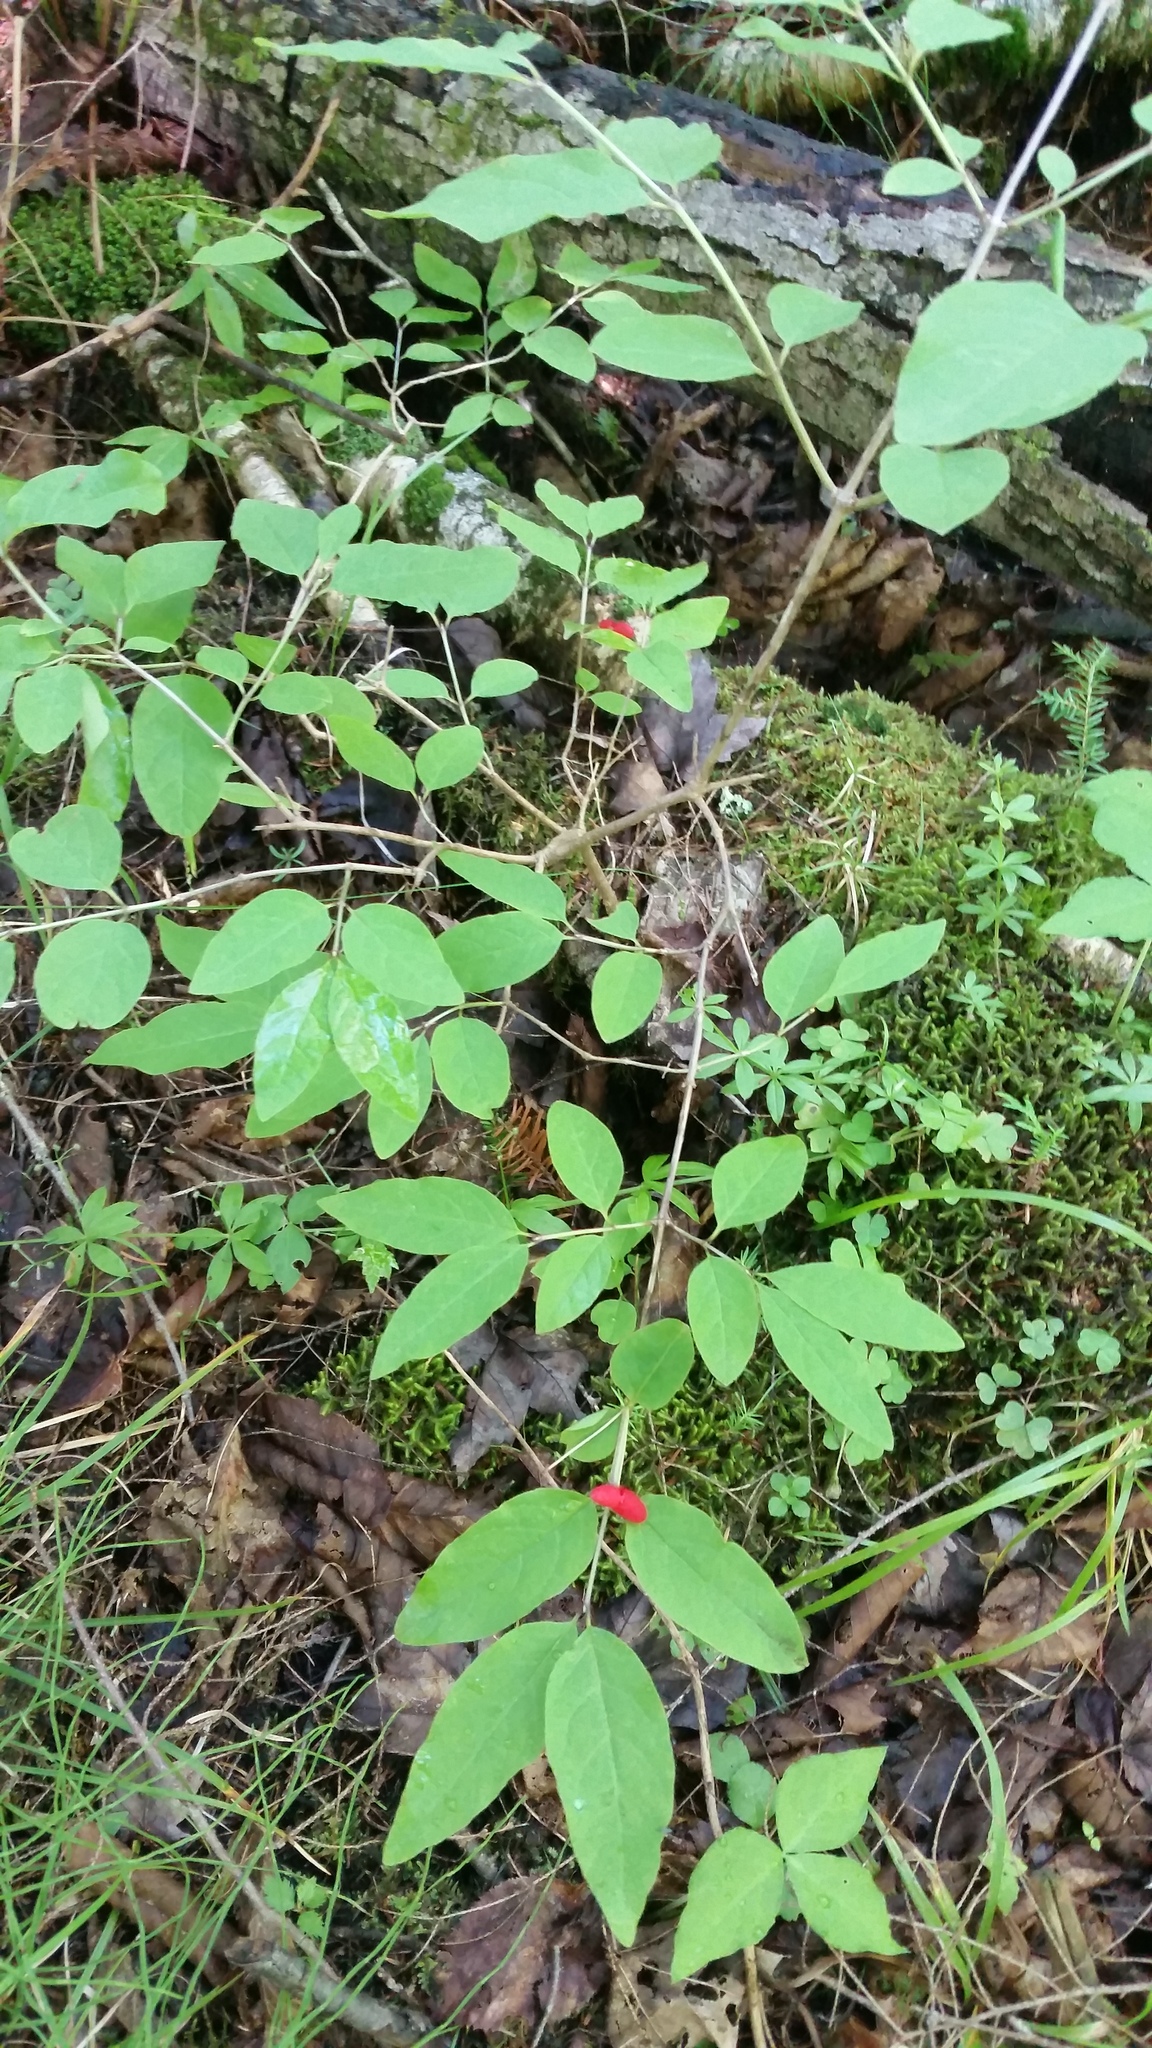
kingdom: Plantae
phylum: Tracheophyta
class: Magnoliopsida
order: Dipsacales
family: Caprifoliaceae
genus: Lonicera
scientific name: Lonicera canadensis
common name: American fly-honeysuckle
